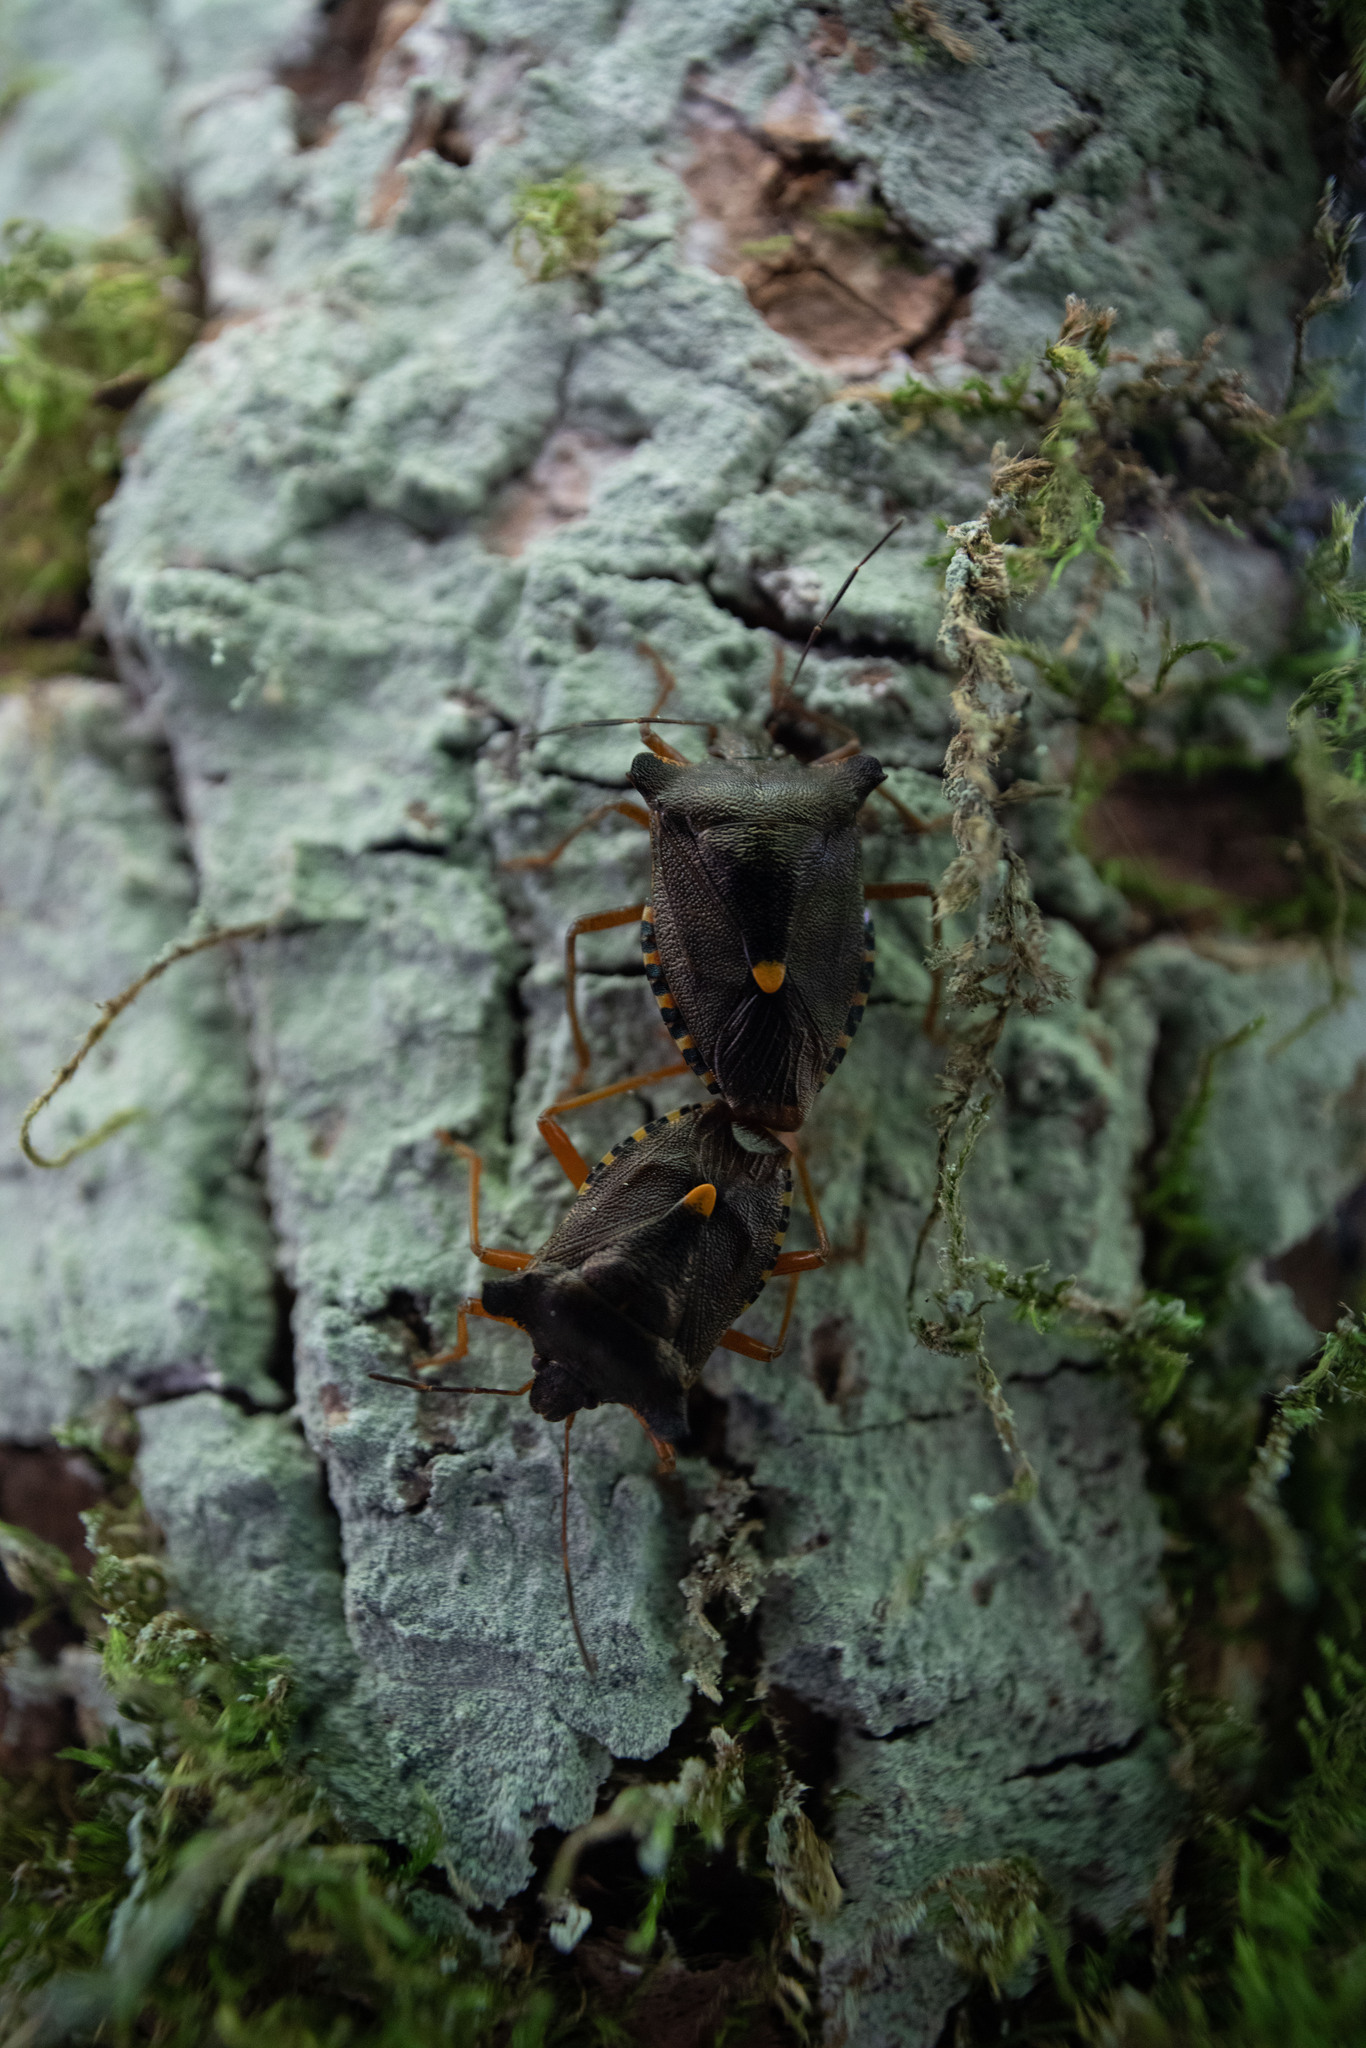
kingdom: Animalia
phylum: Arthropoda
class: Insecta
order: Hemiptera
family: Pentatomidae
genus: Pentatoma
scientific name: Pentatoma rufipes
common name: Forest bug
